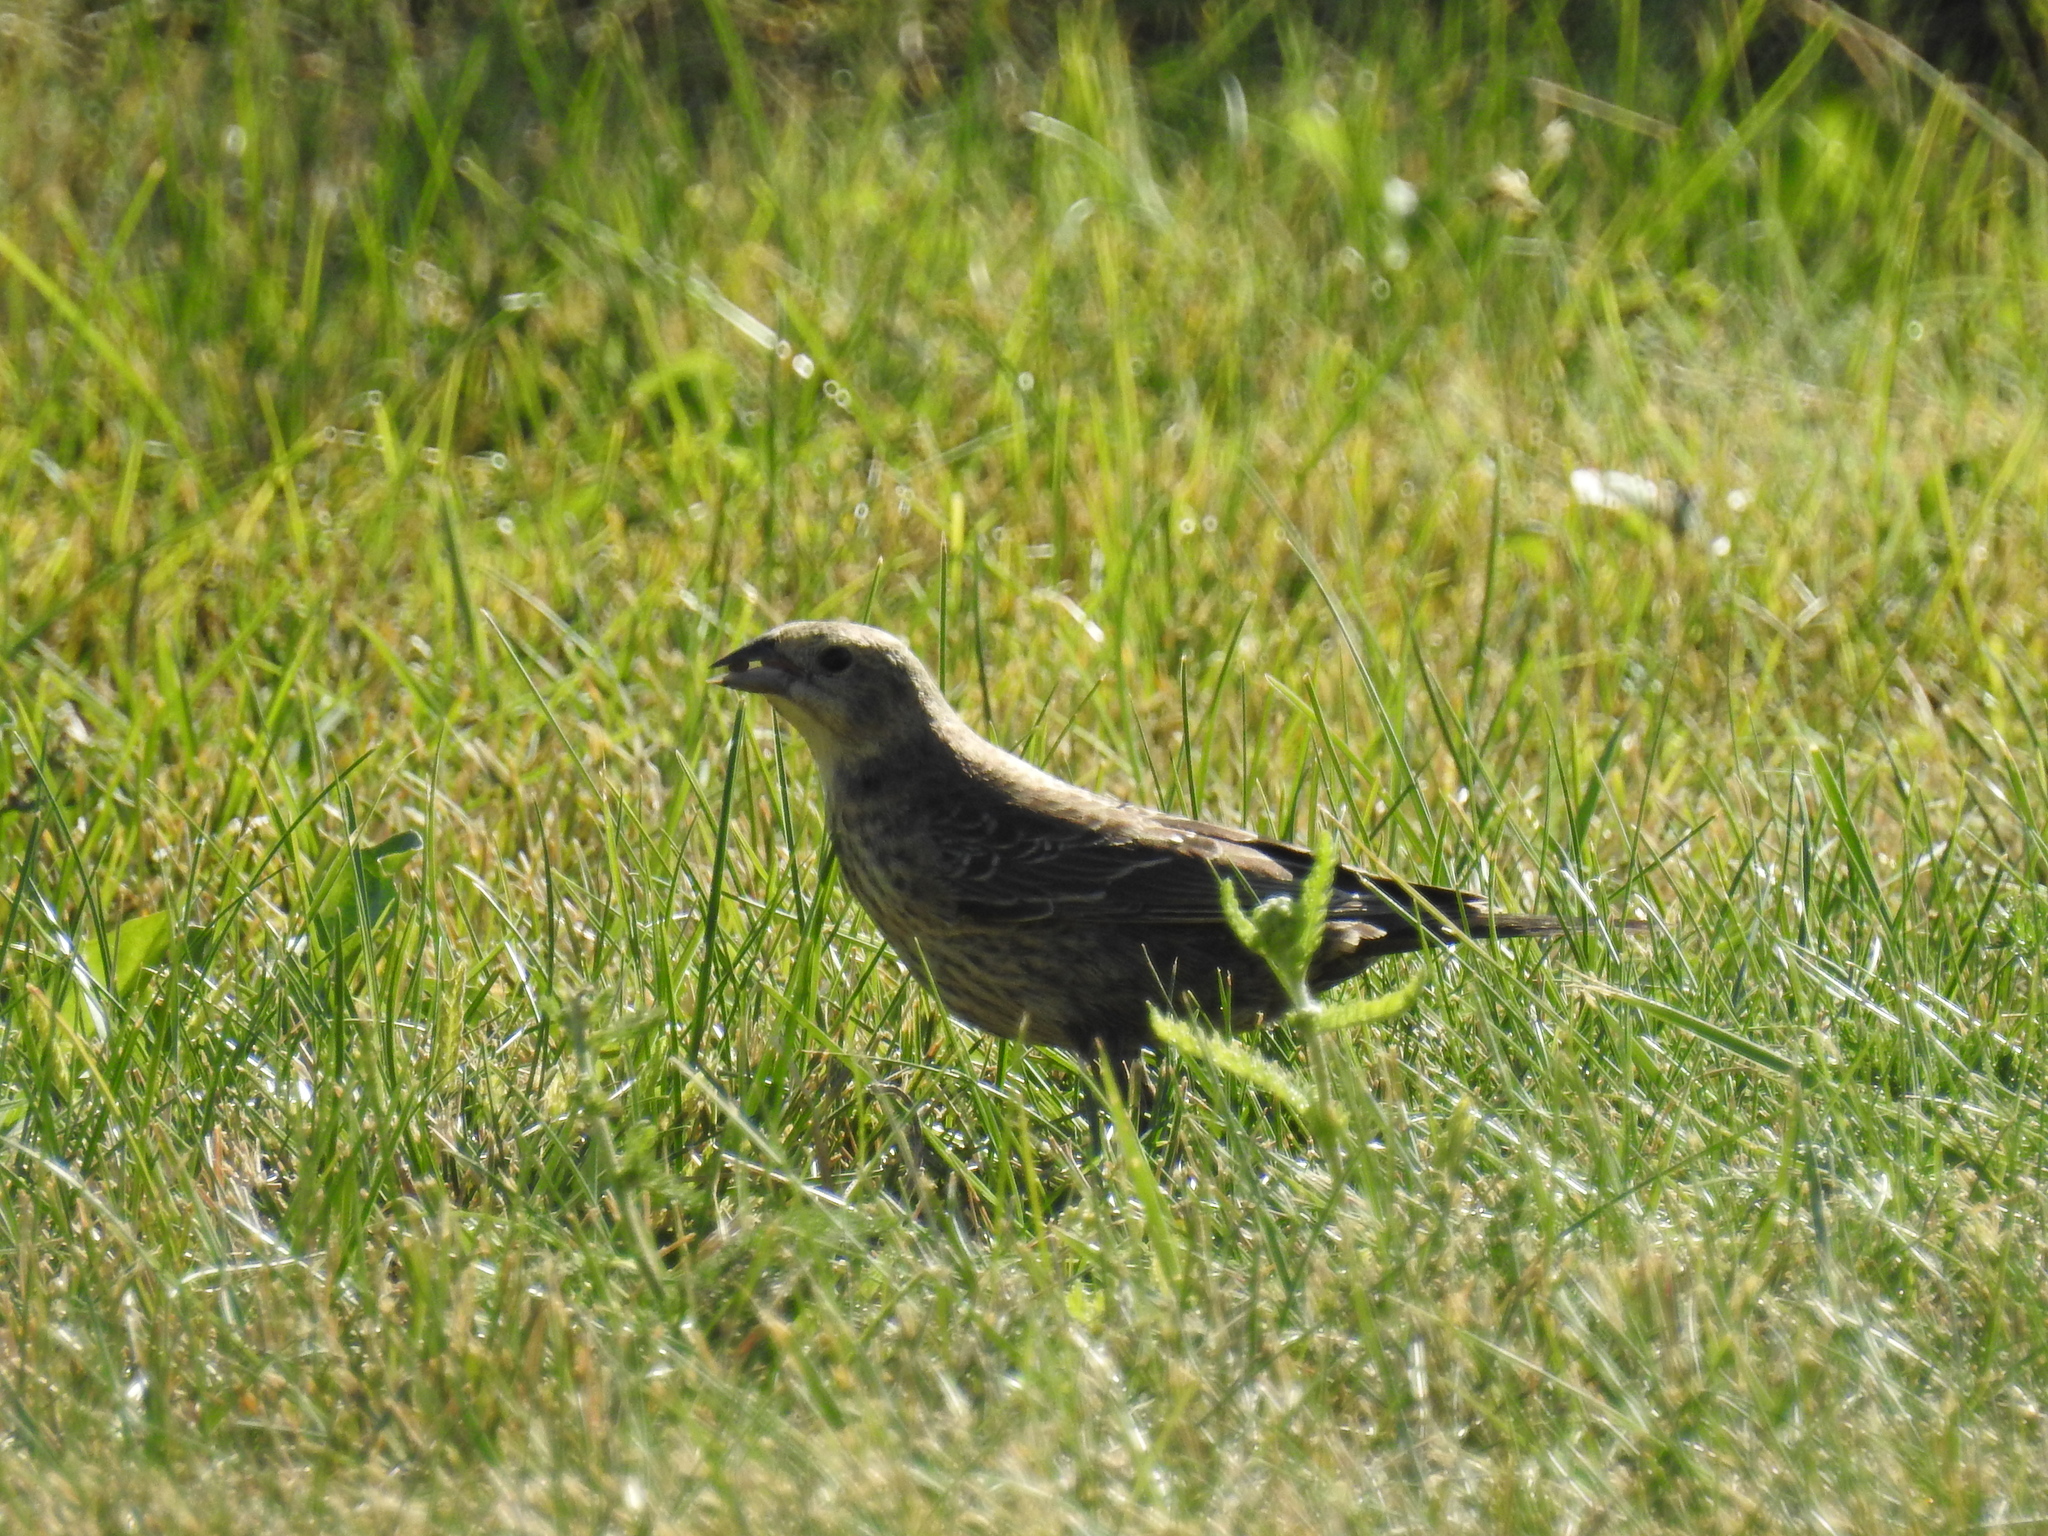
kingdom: Animalia
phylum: Chordata
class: Aves
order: Passeriformes
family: Icteridae
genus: Molothrus
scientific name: Molothrus ater
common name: Brown-headed cowbird
